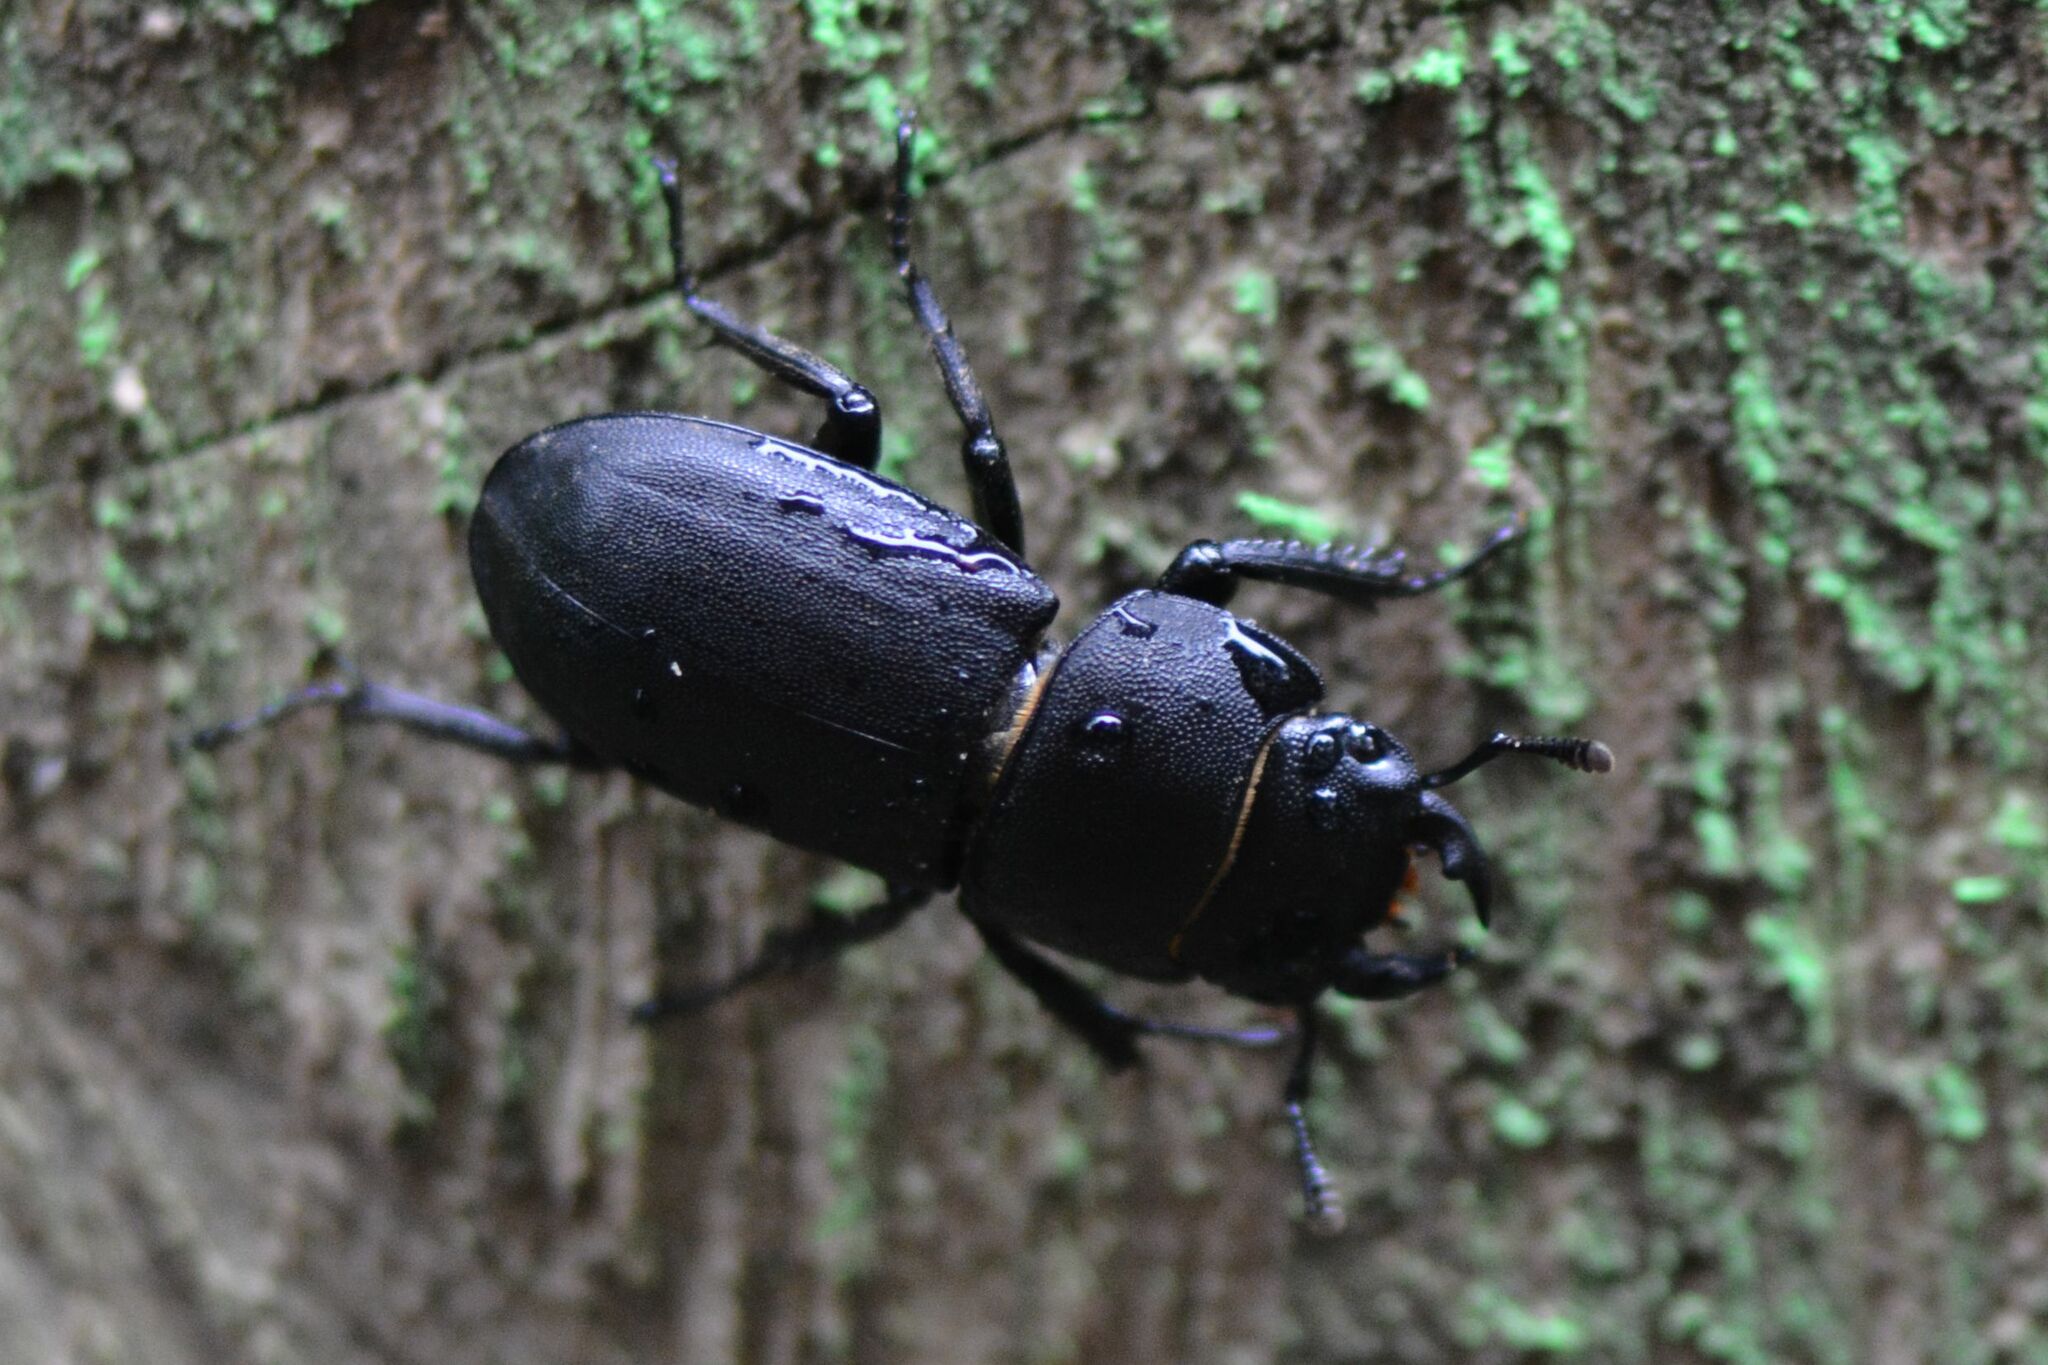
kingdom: Animalia
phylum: Arthropoda
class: Insecta
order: Coleoptera
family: Lucanidae
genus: Dorcus
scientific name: Dorcus parallelipipedus
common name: Lesser stag beetle
